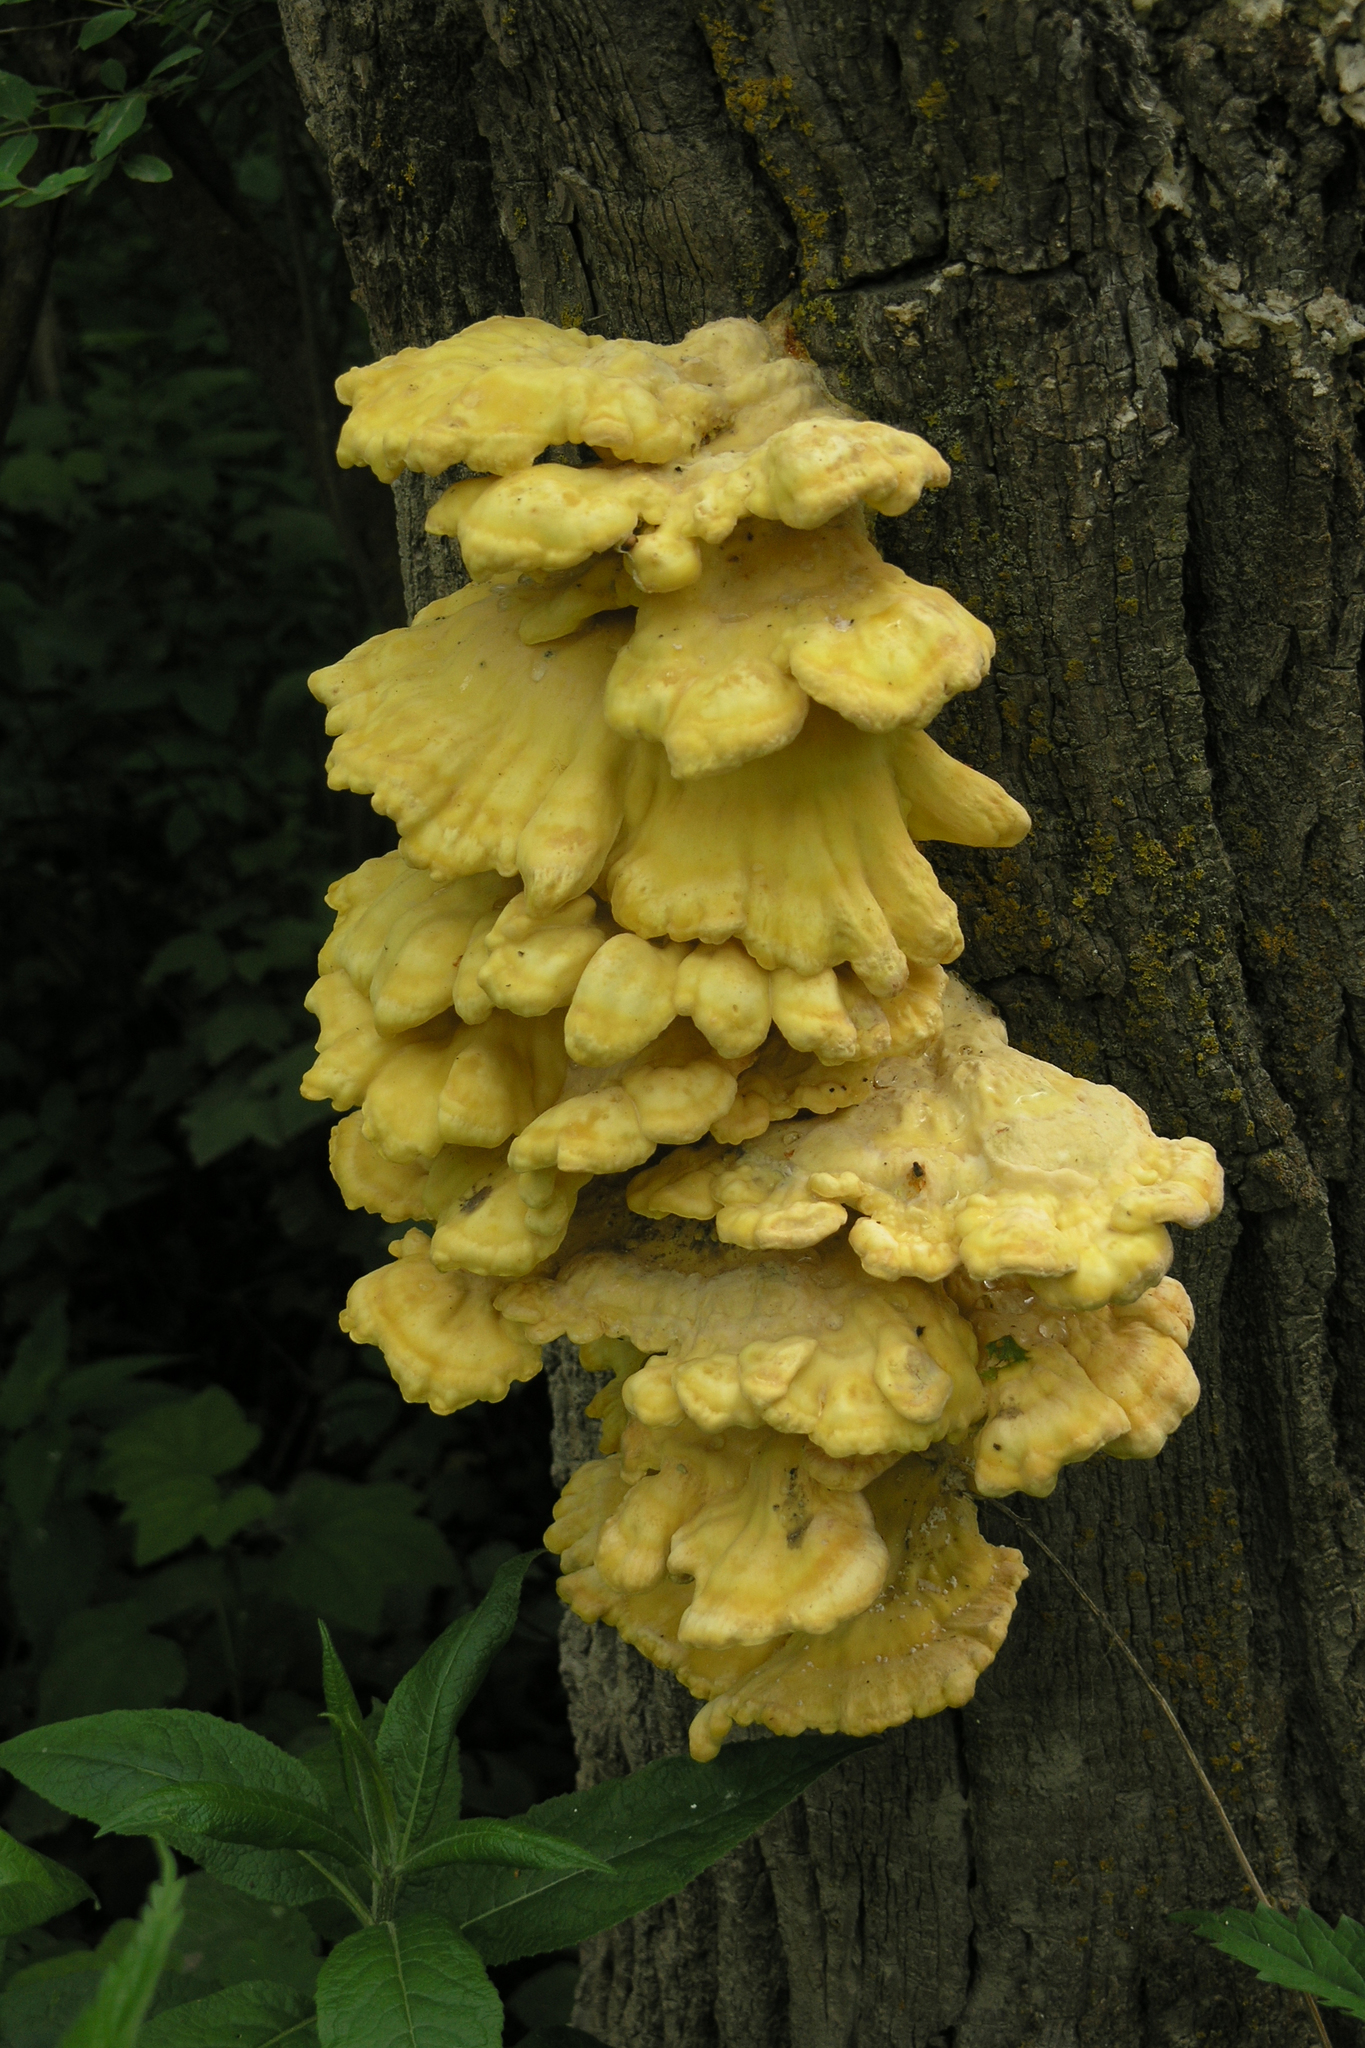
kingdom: Fungi
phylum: Basidiomycota
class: Agaricomycetes
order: Polyporales
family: Laetiporaceae
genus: Laetiporus
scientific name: Laetiporus sulphureus
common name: Chicken of the woods
